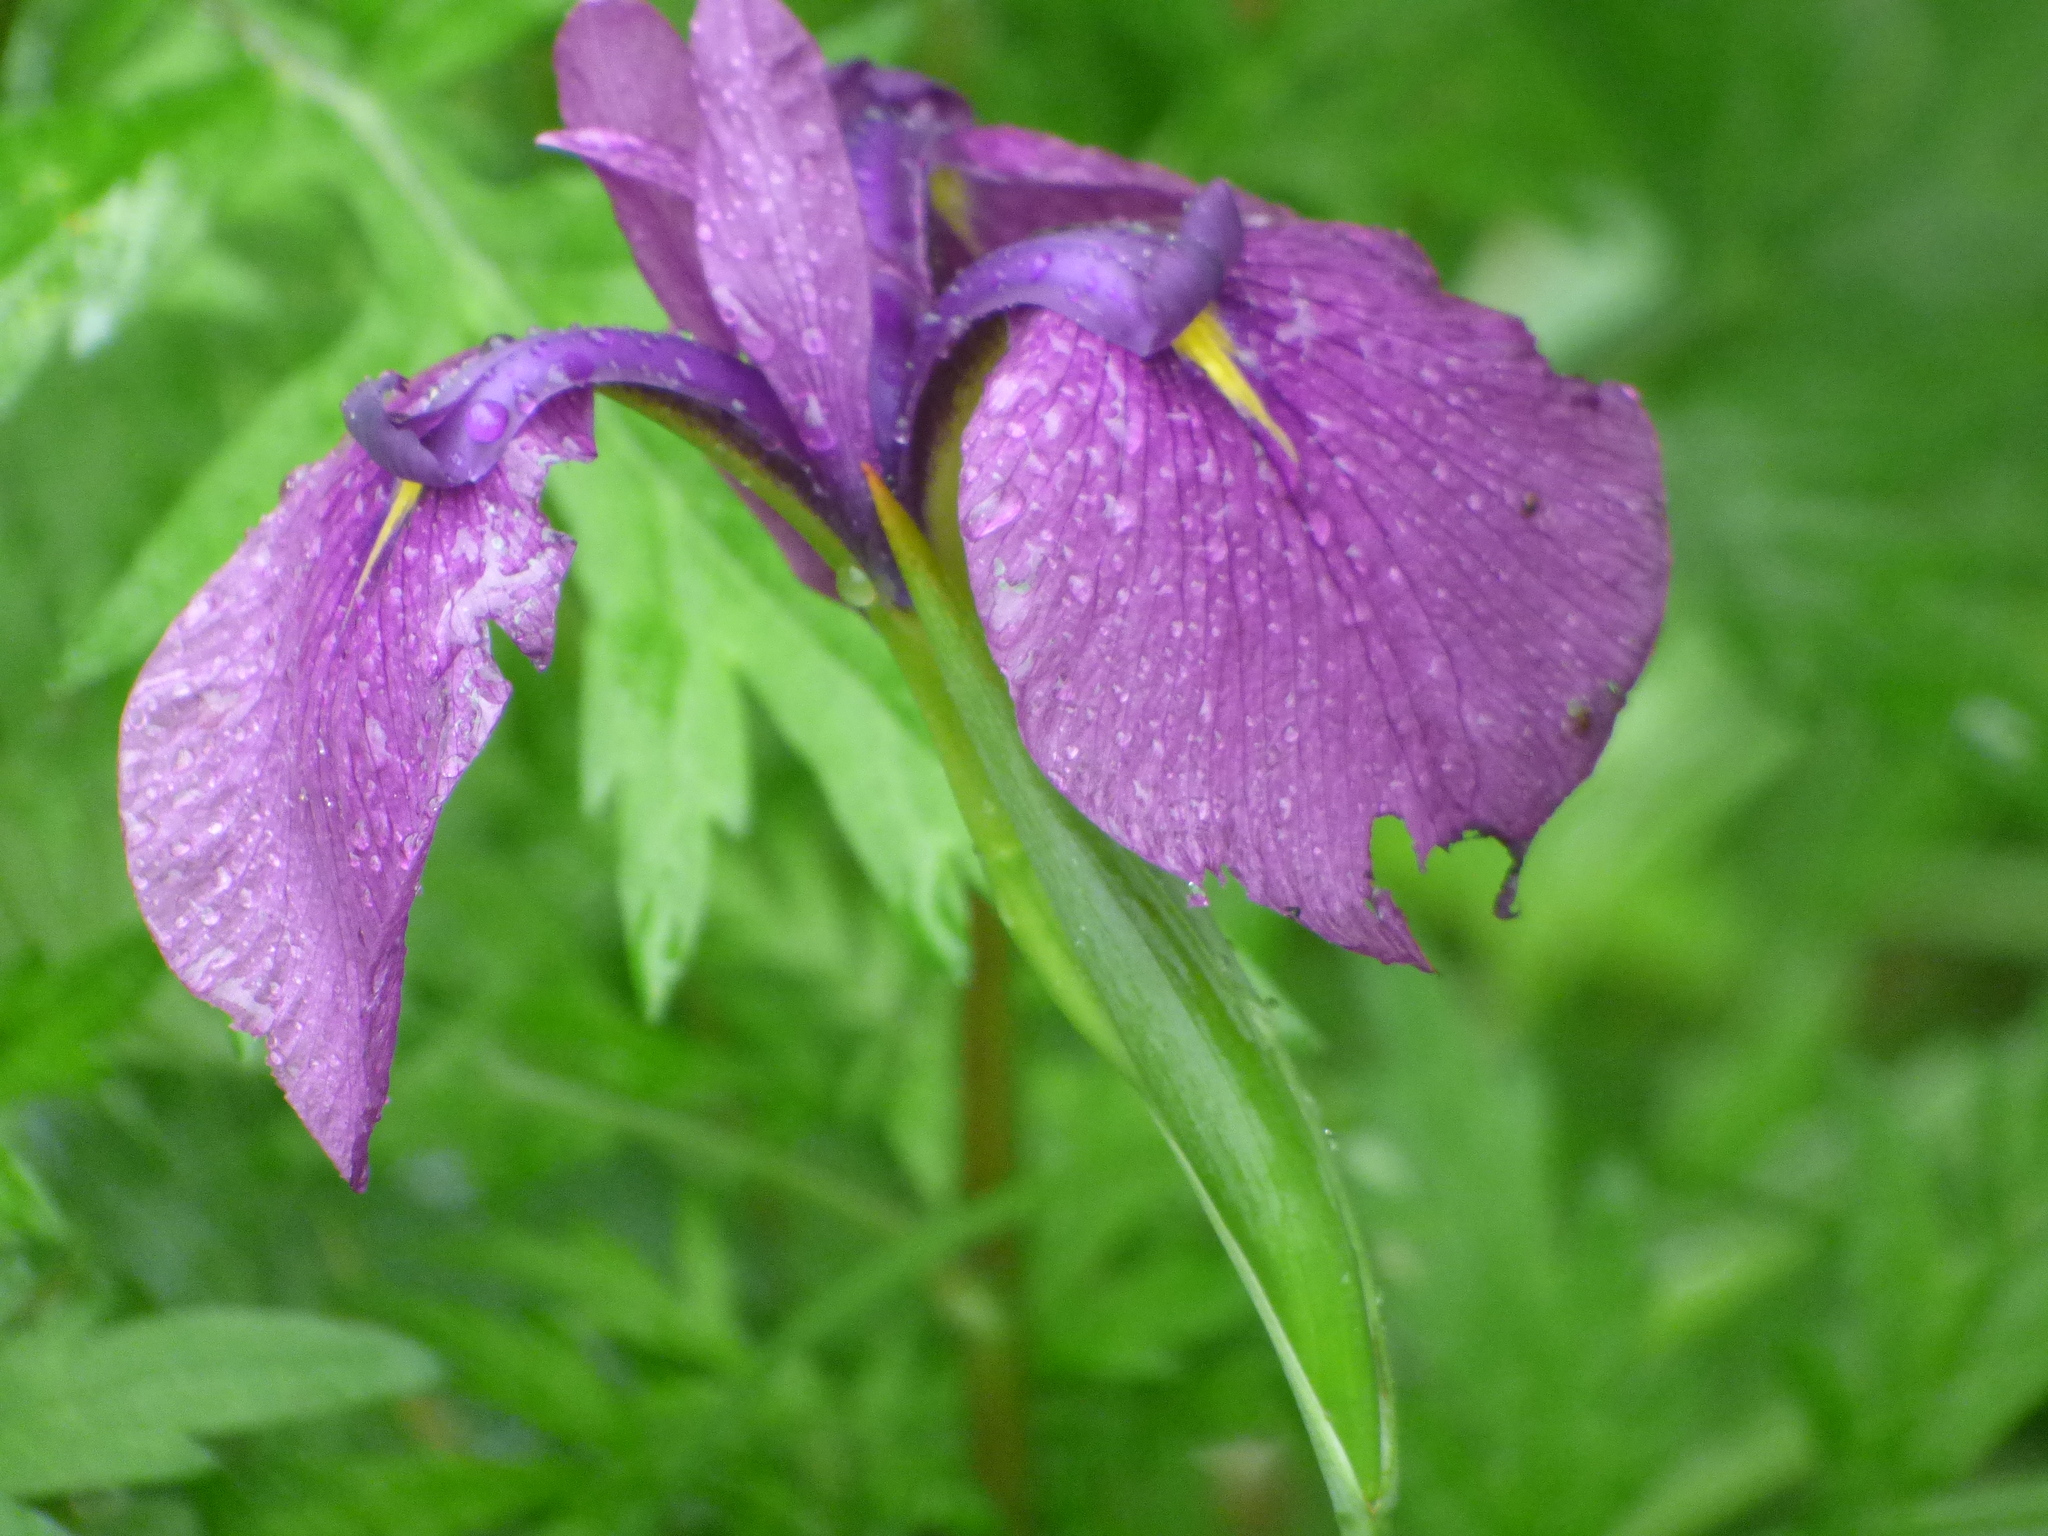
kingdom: Plantae
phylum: Tracheophyta
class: Liliopsida
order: Asparagales
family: Iridaceae
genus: Iris
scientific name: Iris ensata
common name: Beaked iris
